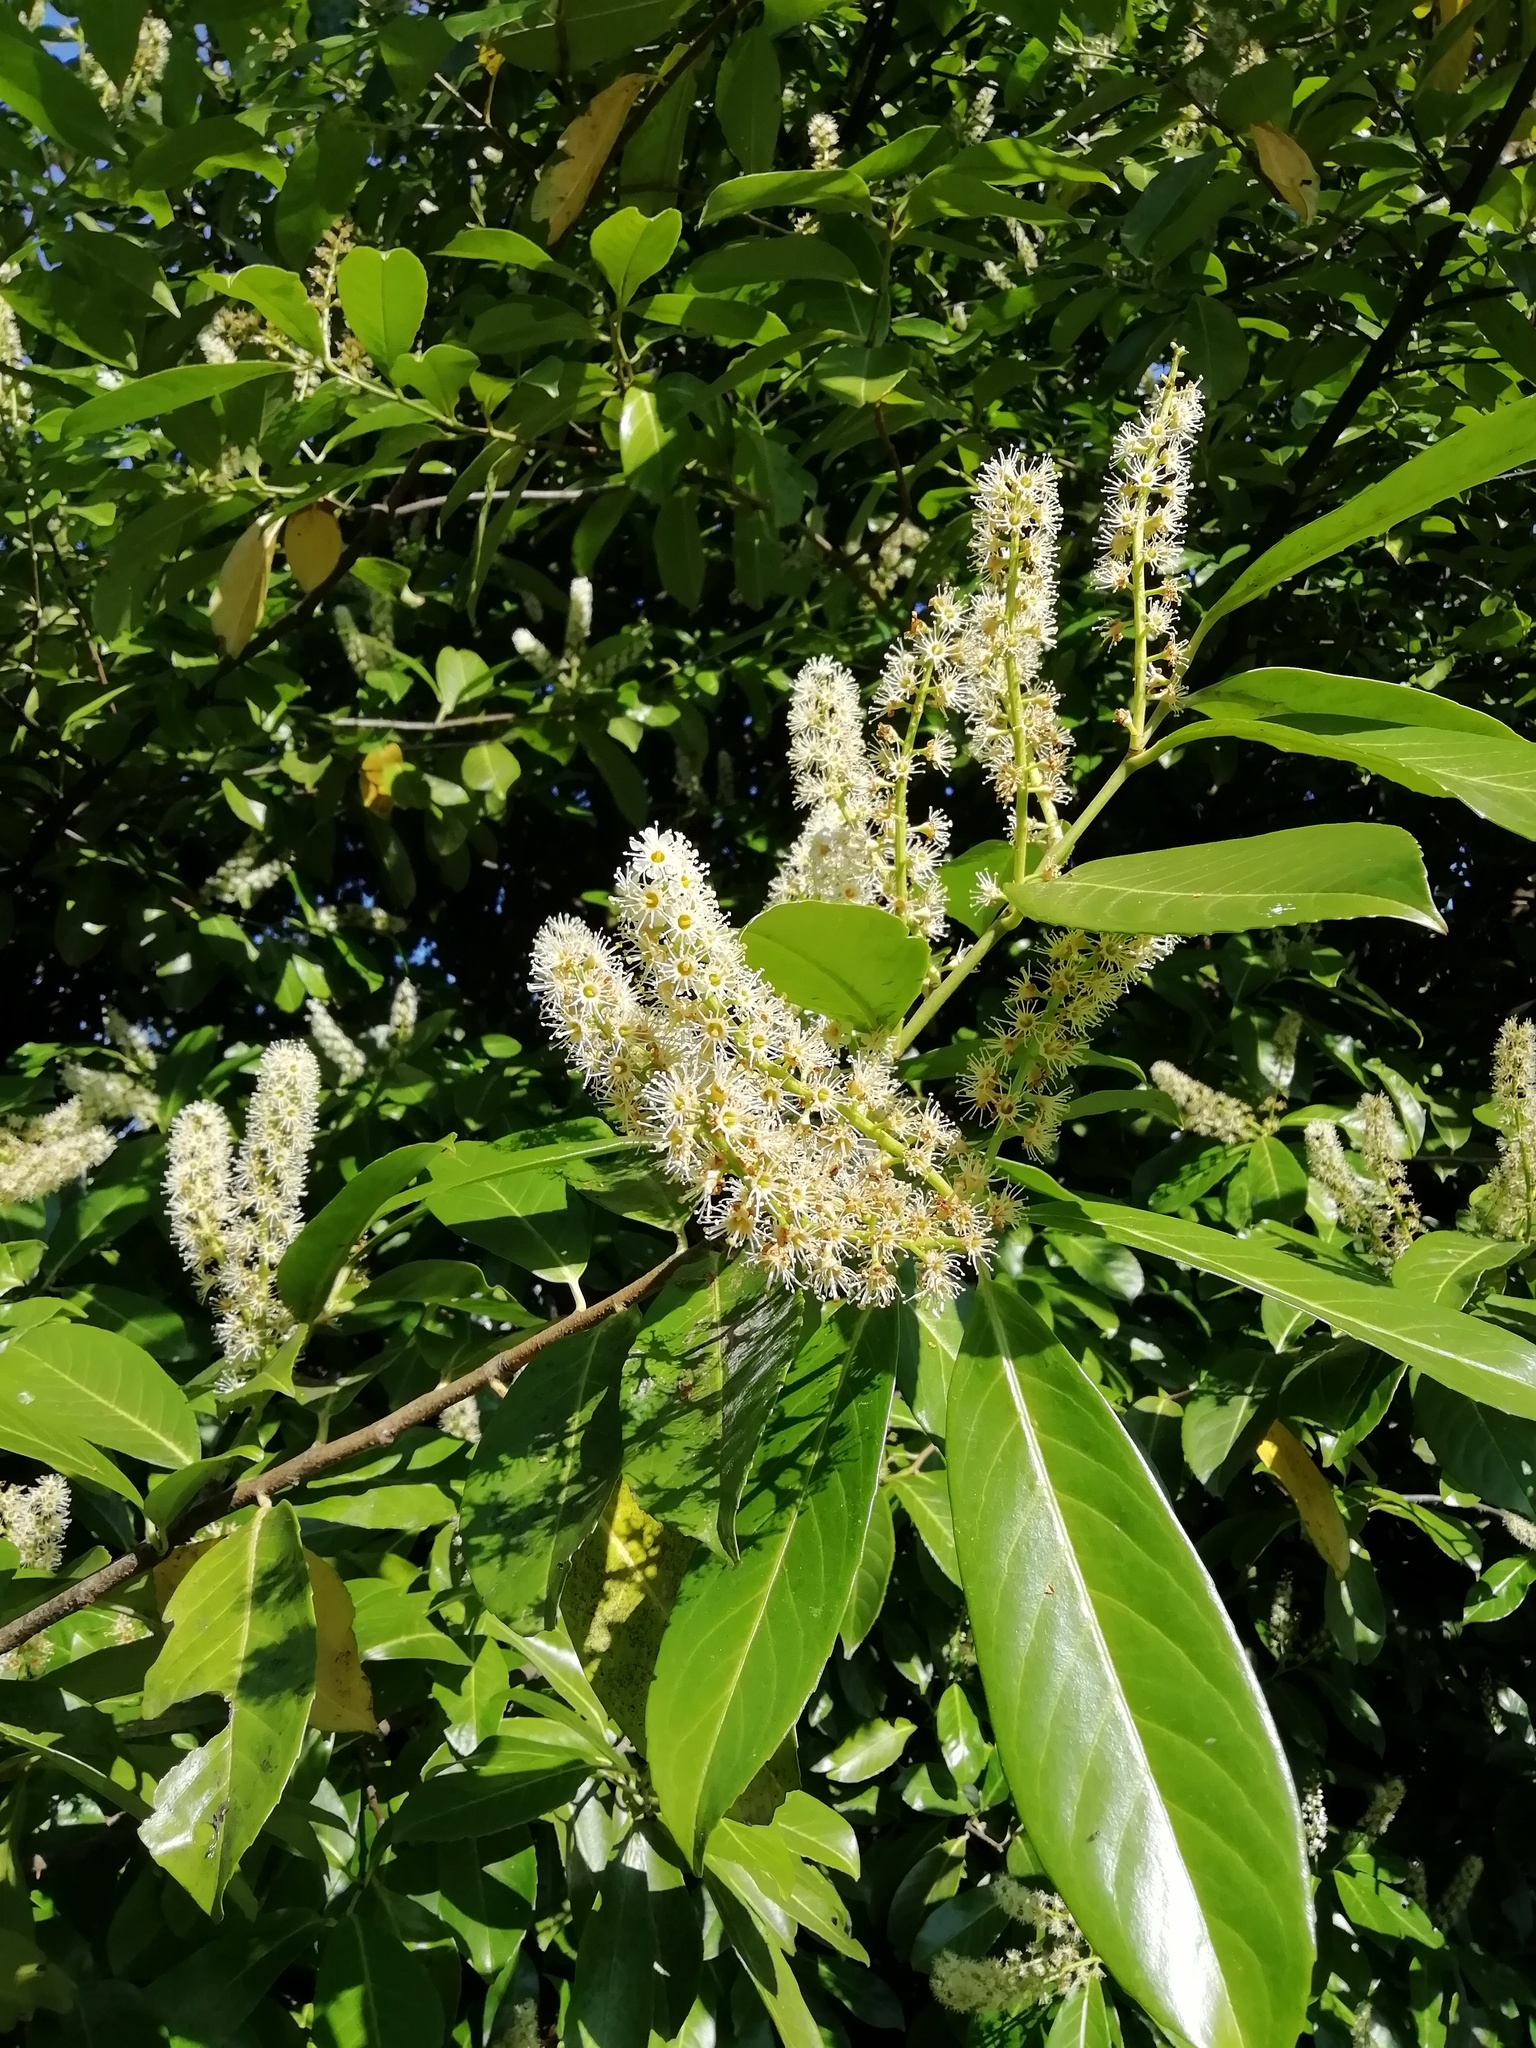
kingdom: Plantae
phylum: Tracheophyta
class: Magnoliopsida
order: Rosales
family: Rosaceae
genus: Prunus
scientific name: Prunus laurocerasus
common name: Cherry laurel
